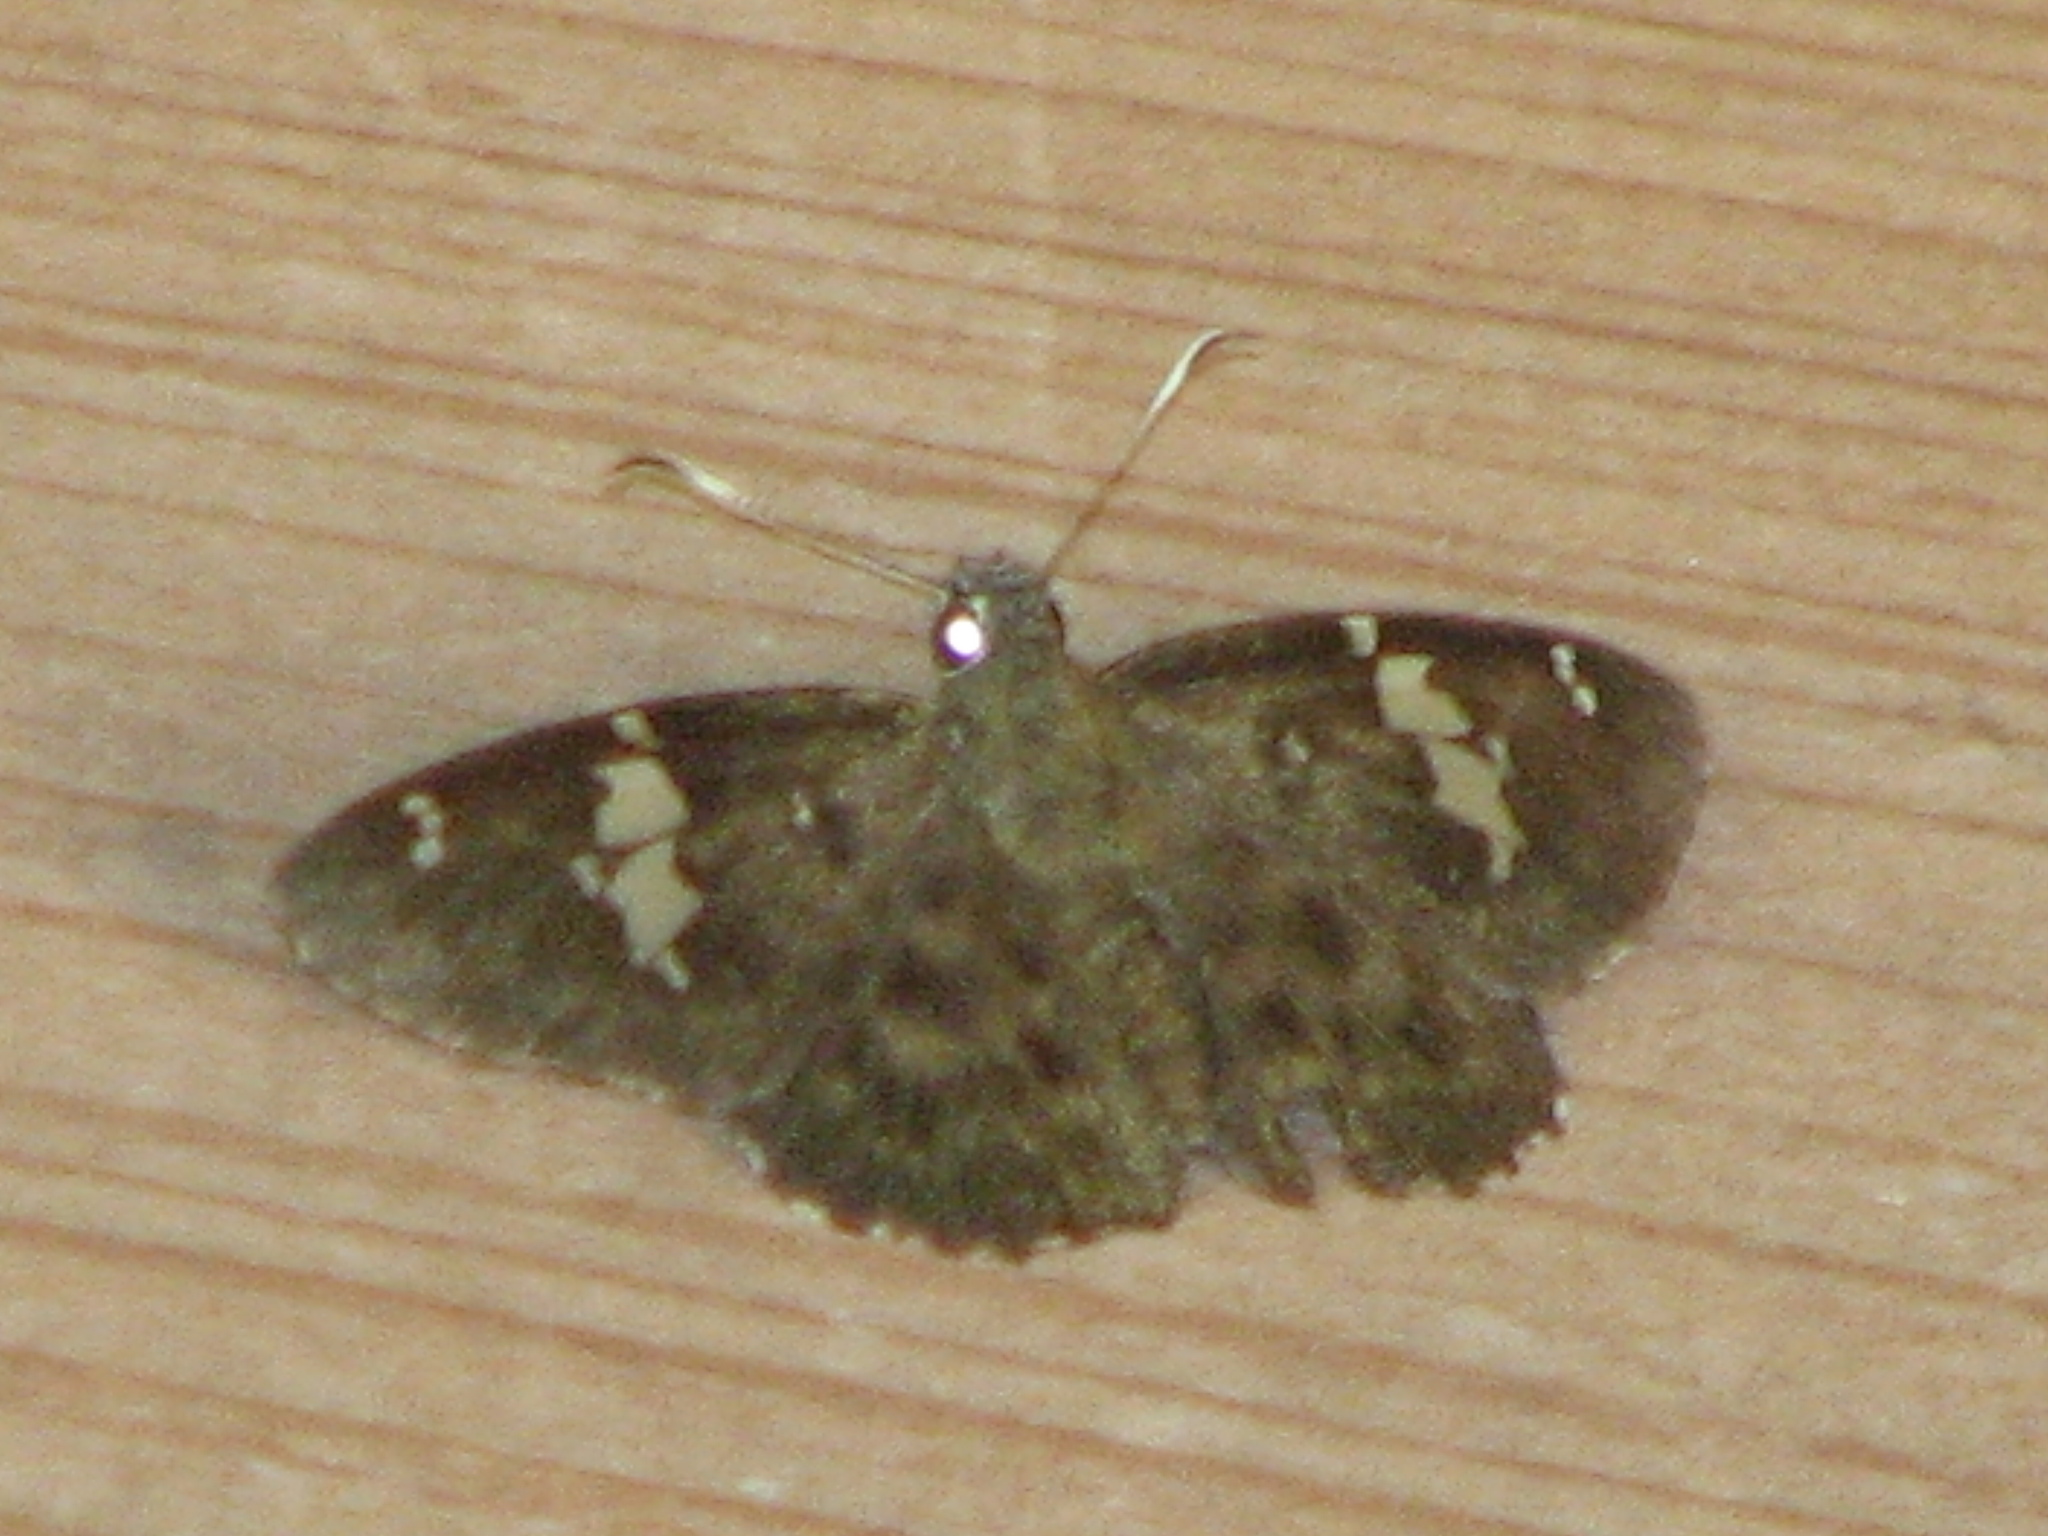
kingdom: Animalia
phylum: Arthropoda
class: Insecta
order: Lepidoptera
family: Hesperiidae
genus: Celaenorrhinus
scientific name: Celaenorrhinus fritzgaertneri
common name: Fritzgaertner's flat
